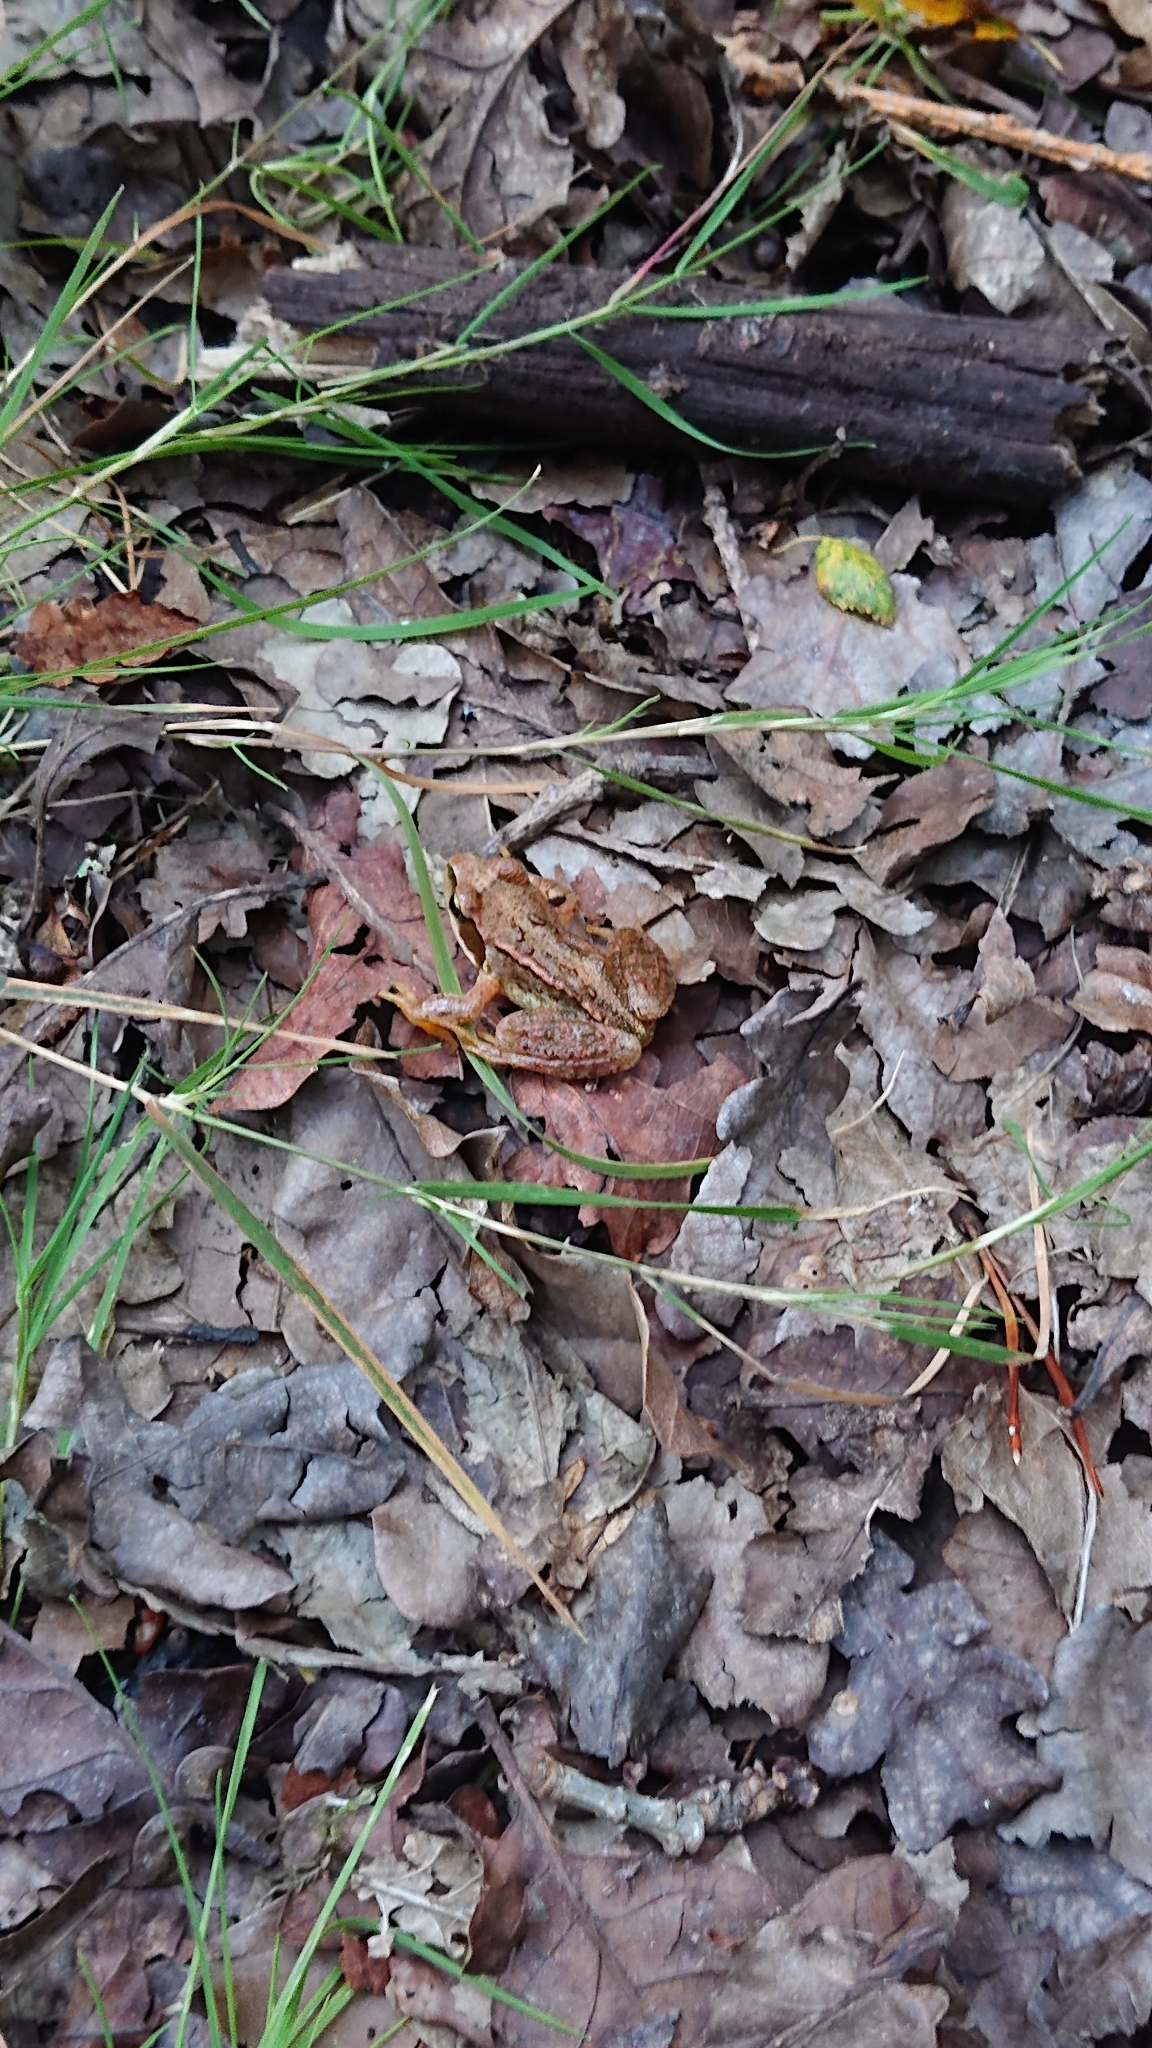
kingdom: Animalia
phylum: Chordata
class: Amphibia
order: Anura
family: Ranidae
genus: Rana
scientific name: Rana temporaria
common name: Common frog
